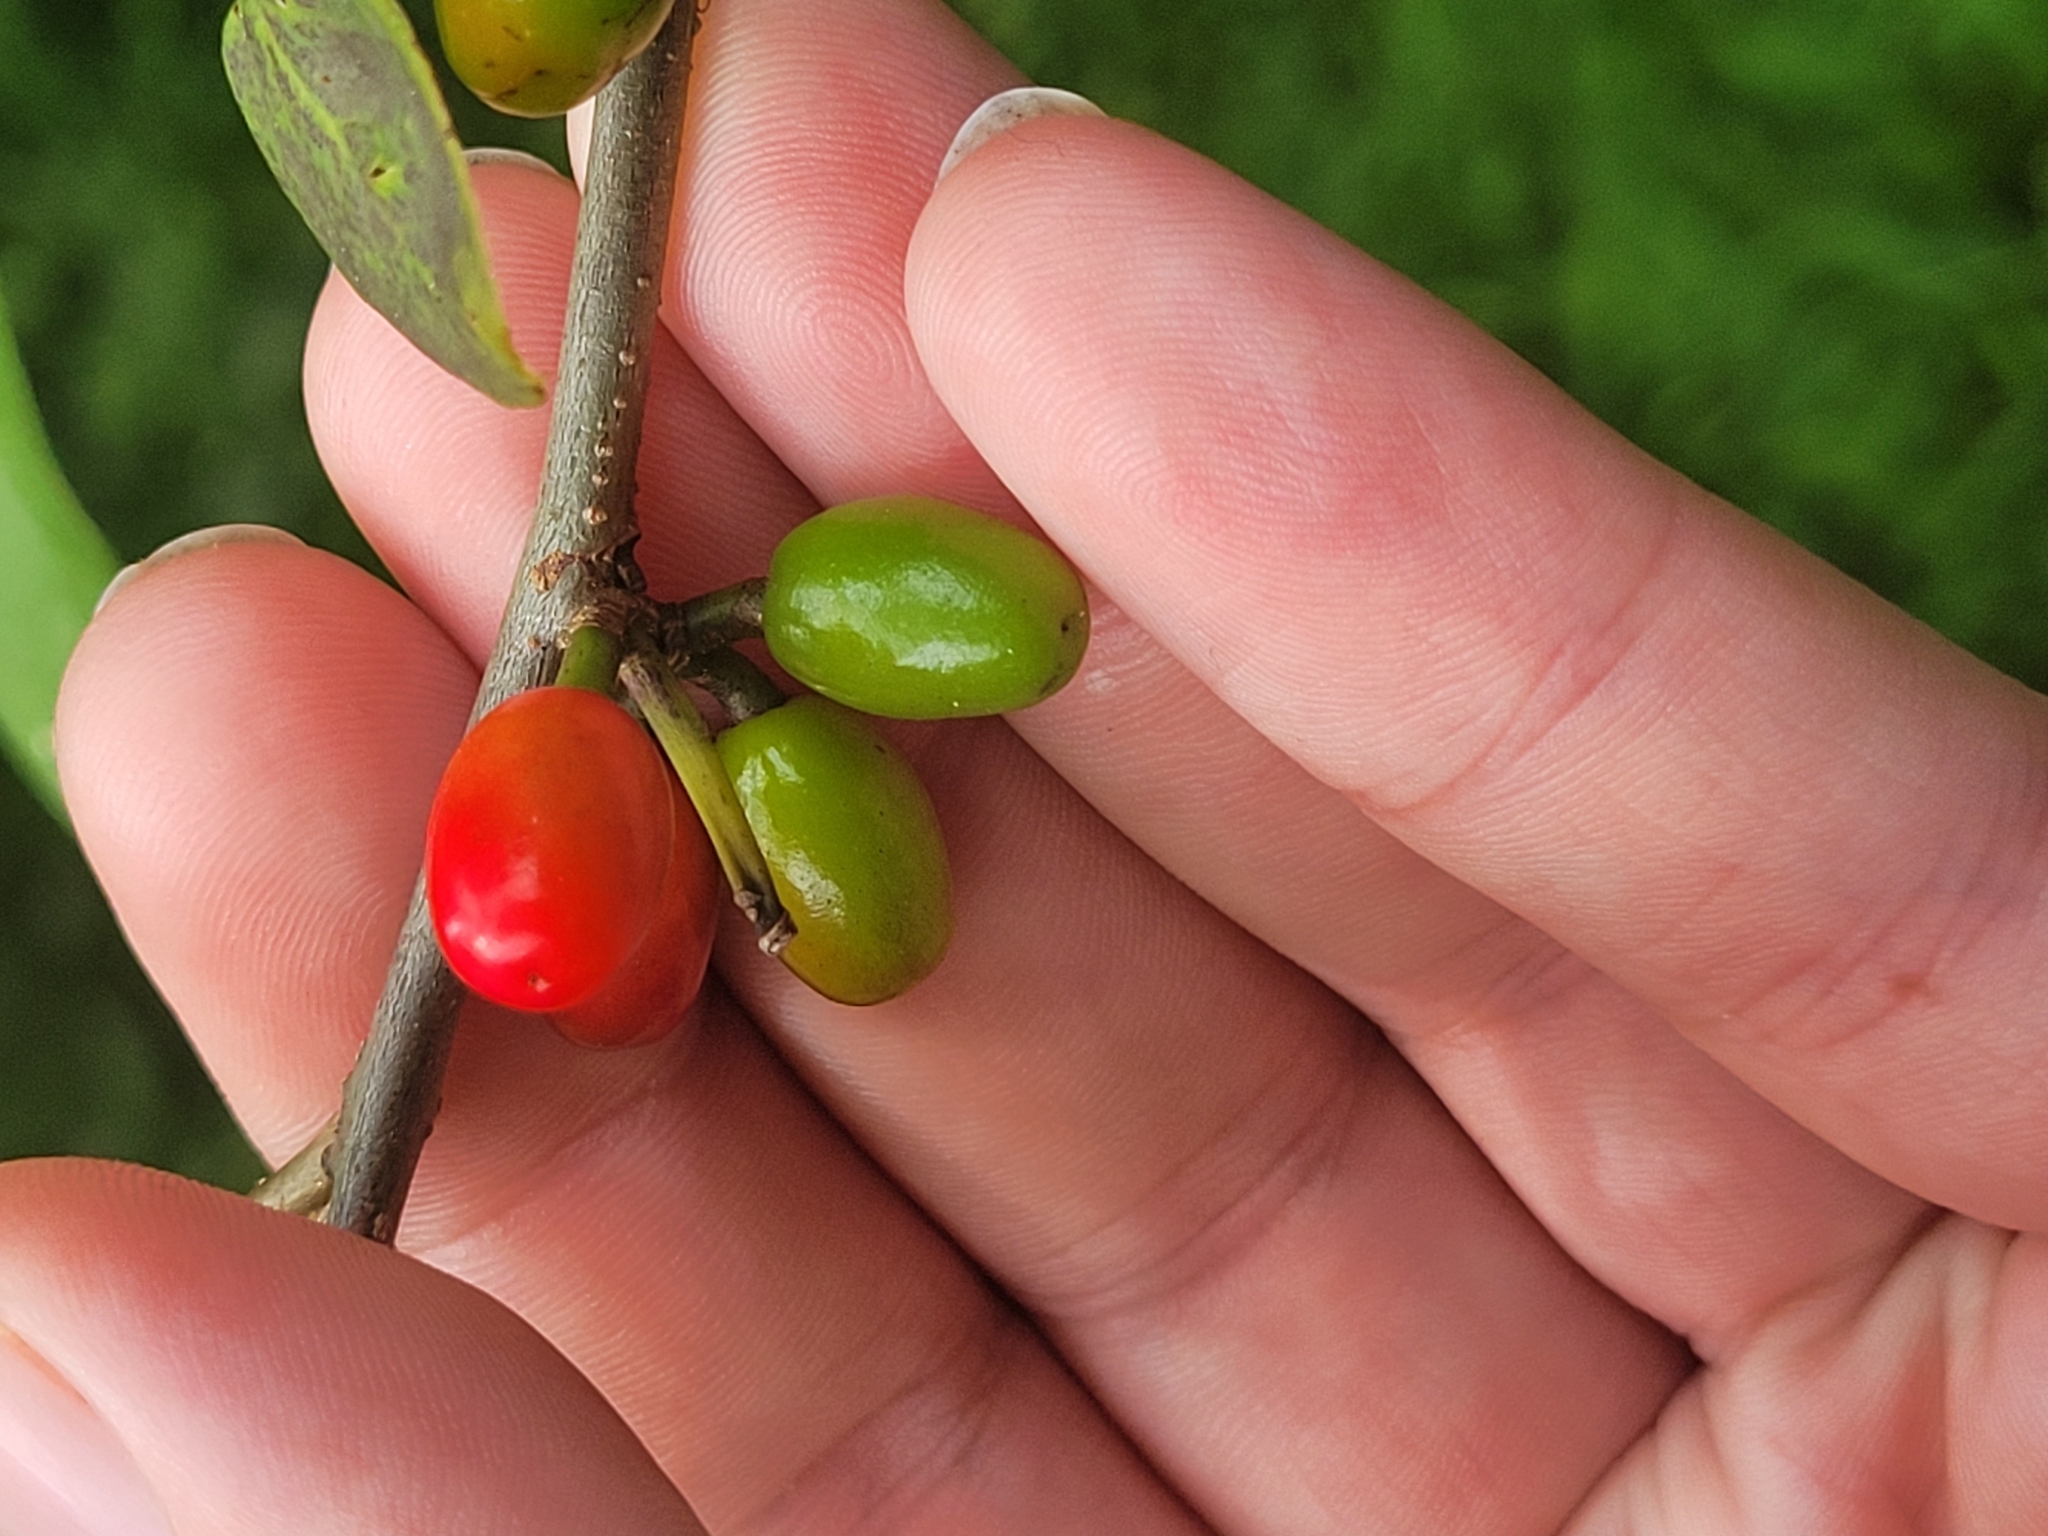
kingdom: Plantae
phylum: Tracheophyta
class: Magnoliopsida
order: Laurales
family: Lauraceae
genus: Lindera
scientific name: Lindera benzoin
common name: Spicebush
